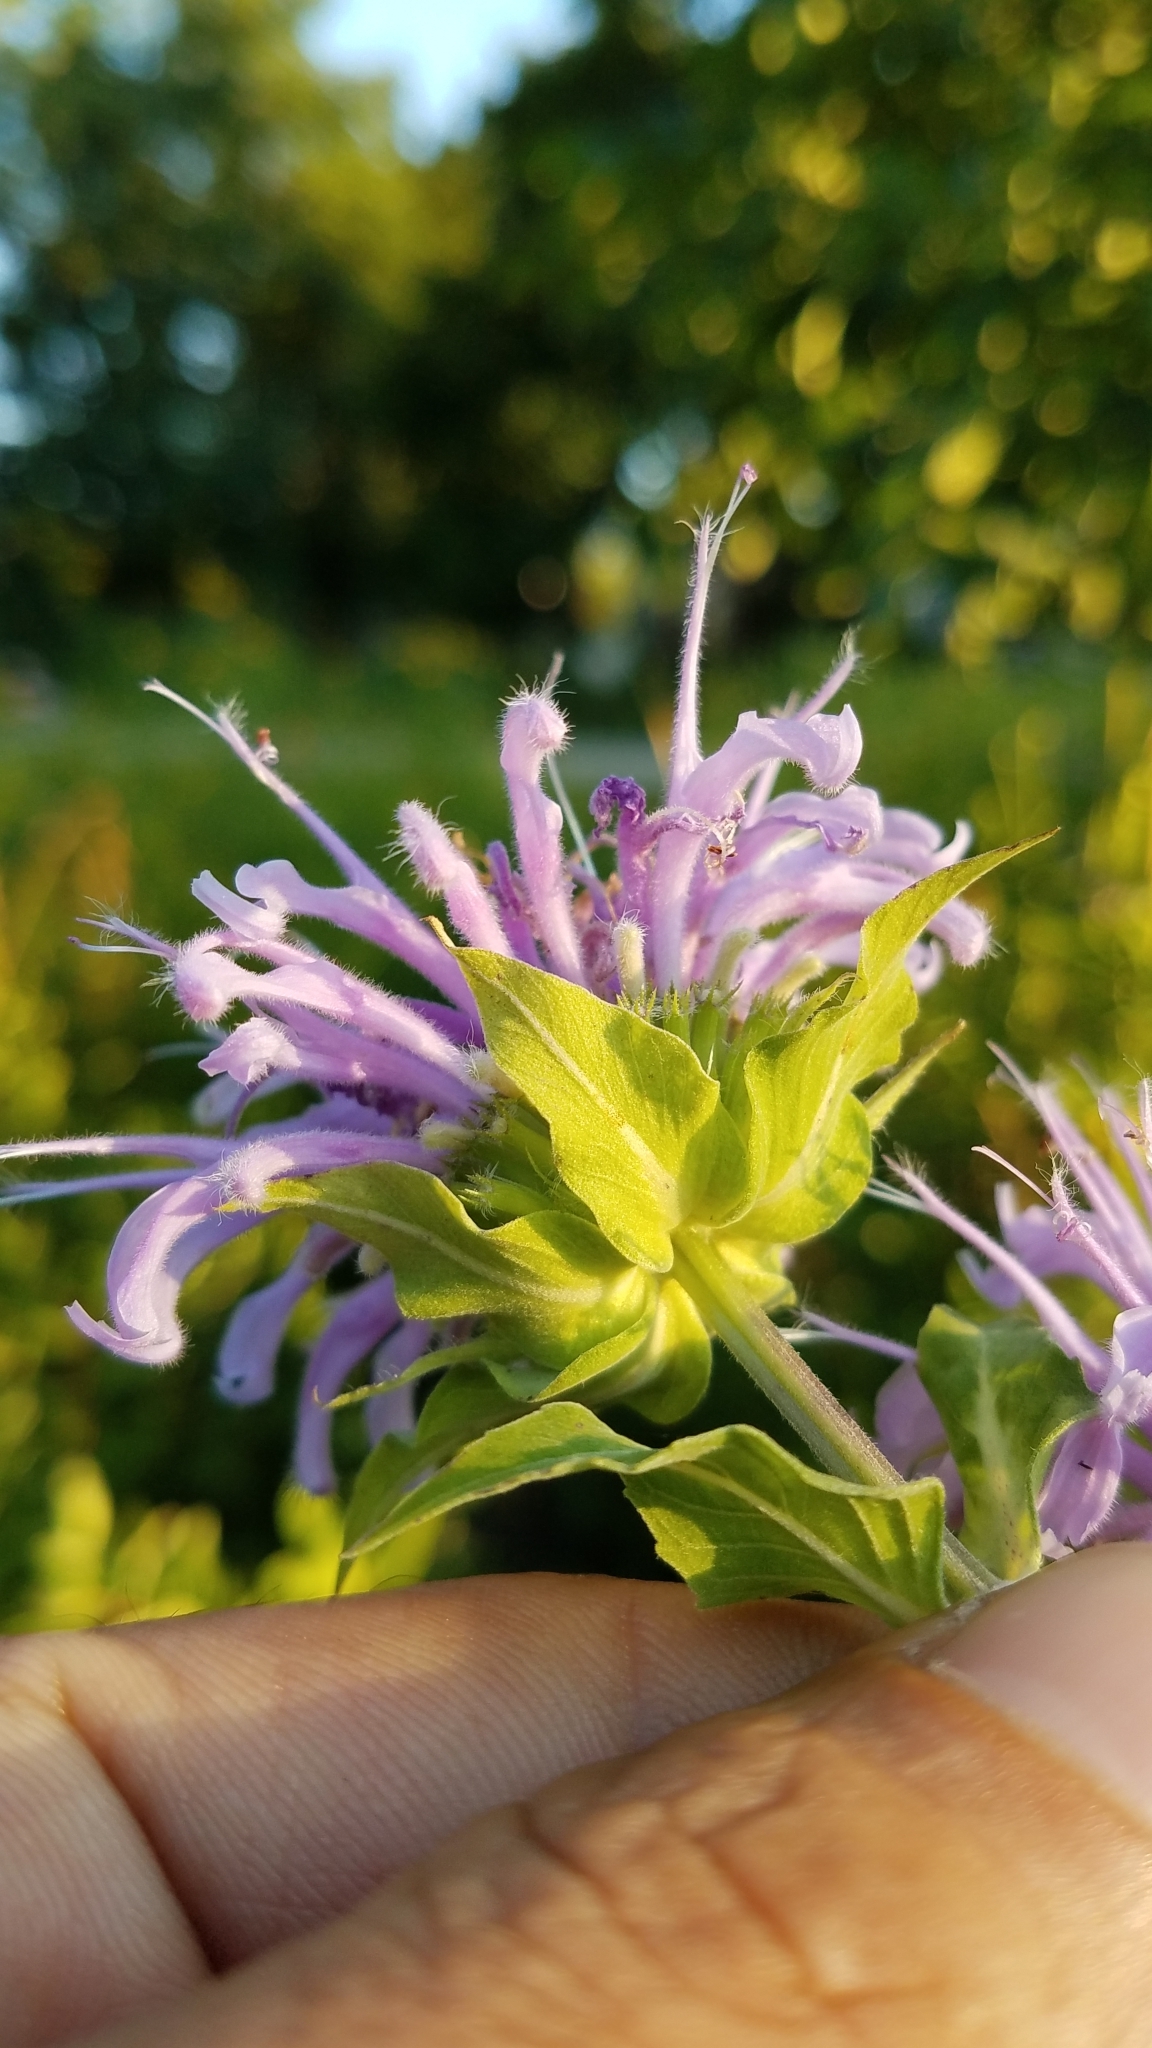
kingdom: Plantae
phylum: Tracheophyta
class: Magnoliopsida
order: Lamiales
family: Lamiaceae
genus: Monarda
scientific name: Monarda fistulosa
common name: Purple beebalm
